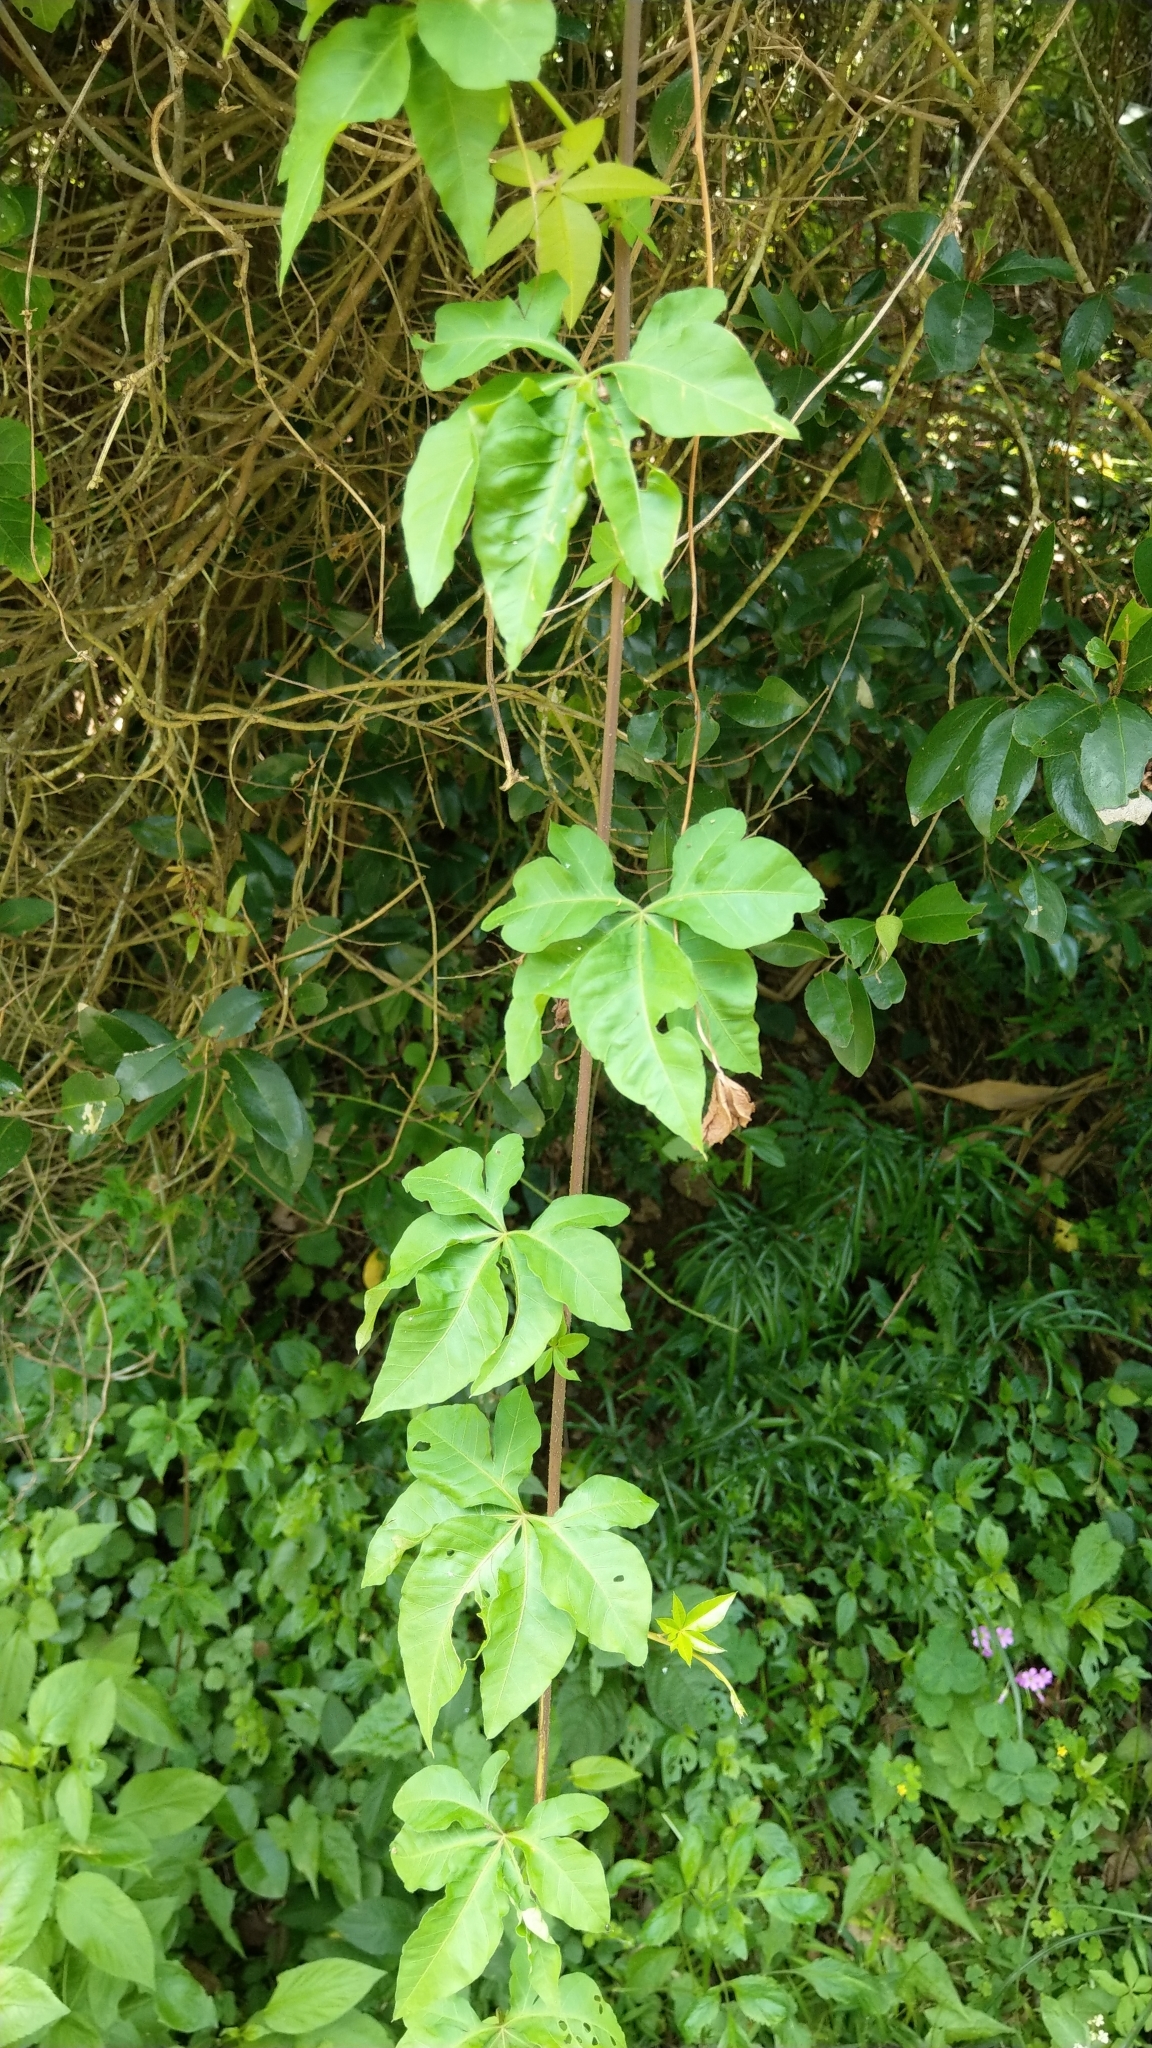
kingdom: Plantae
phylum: Tracheophyta
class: Magnoliopsida
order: Solanales
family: Convolvulaceae
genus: Ipomoea
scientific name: Ipomoea cairica
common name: Mile a minute vine
